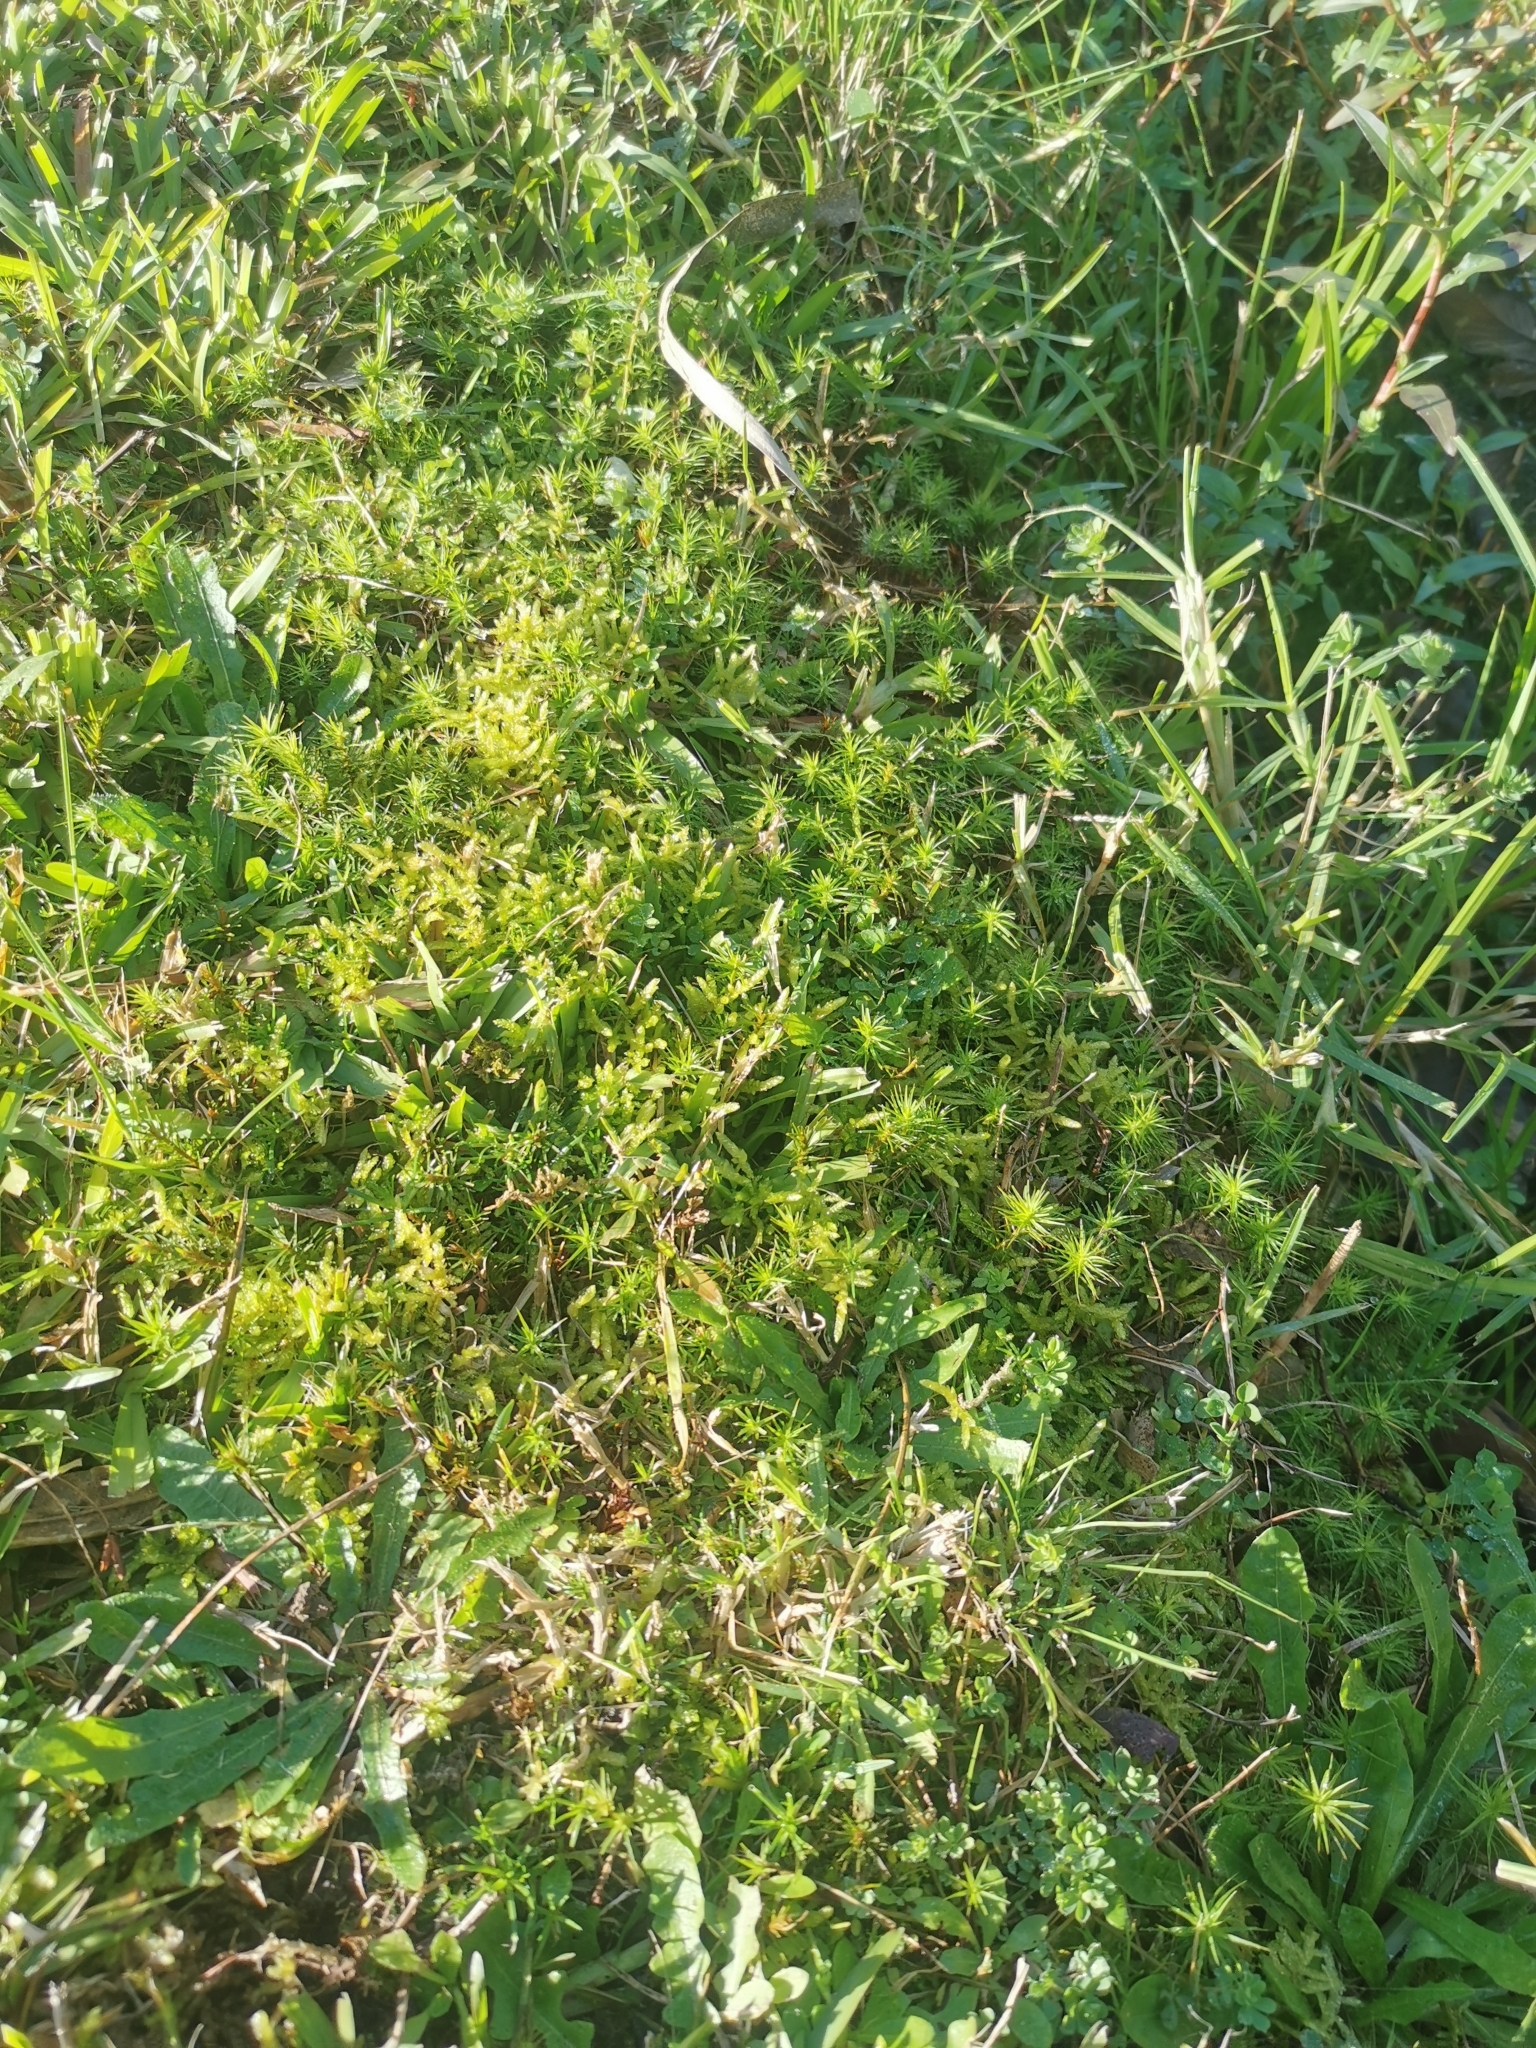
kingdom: Plantae
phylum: Bryophyta
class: Bryopsida
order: Hypnales
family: Brachytheciaceae
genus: Pseudoscleropodium
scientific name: Pseudoscleropodium purum
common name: Neat feather-moss
